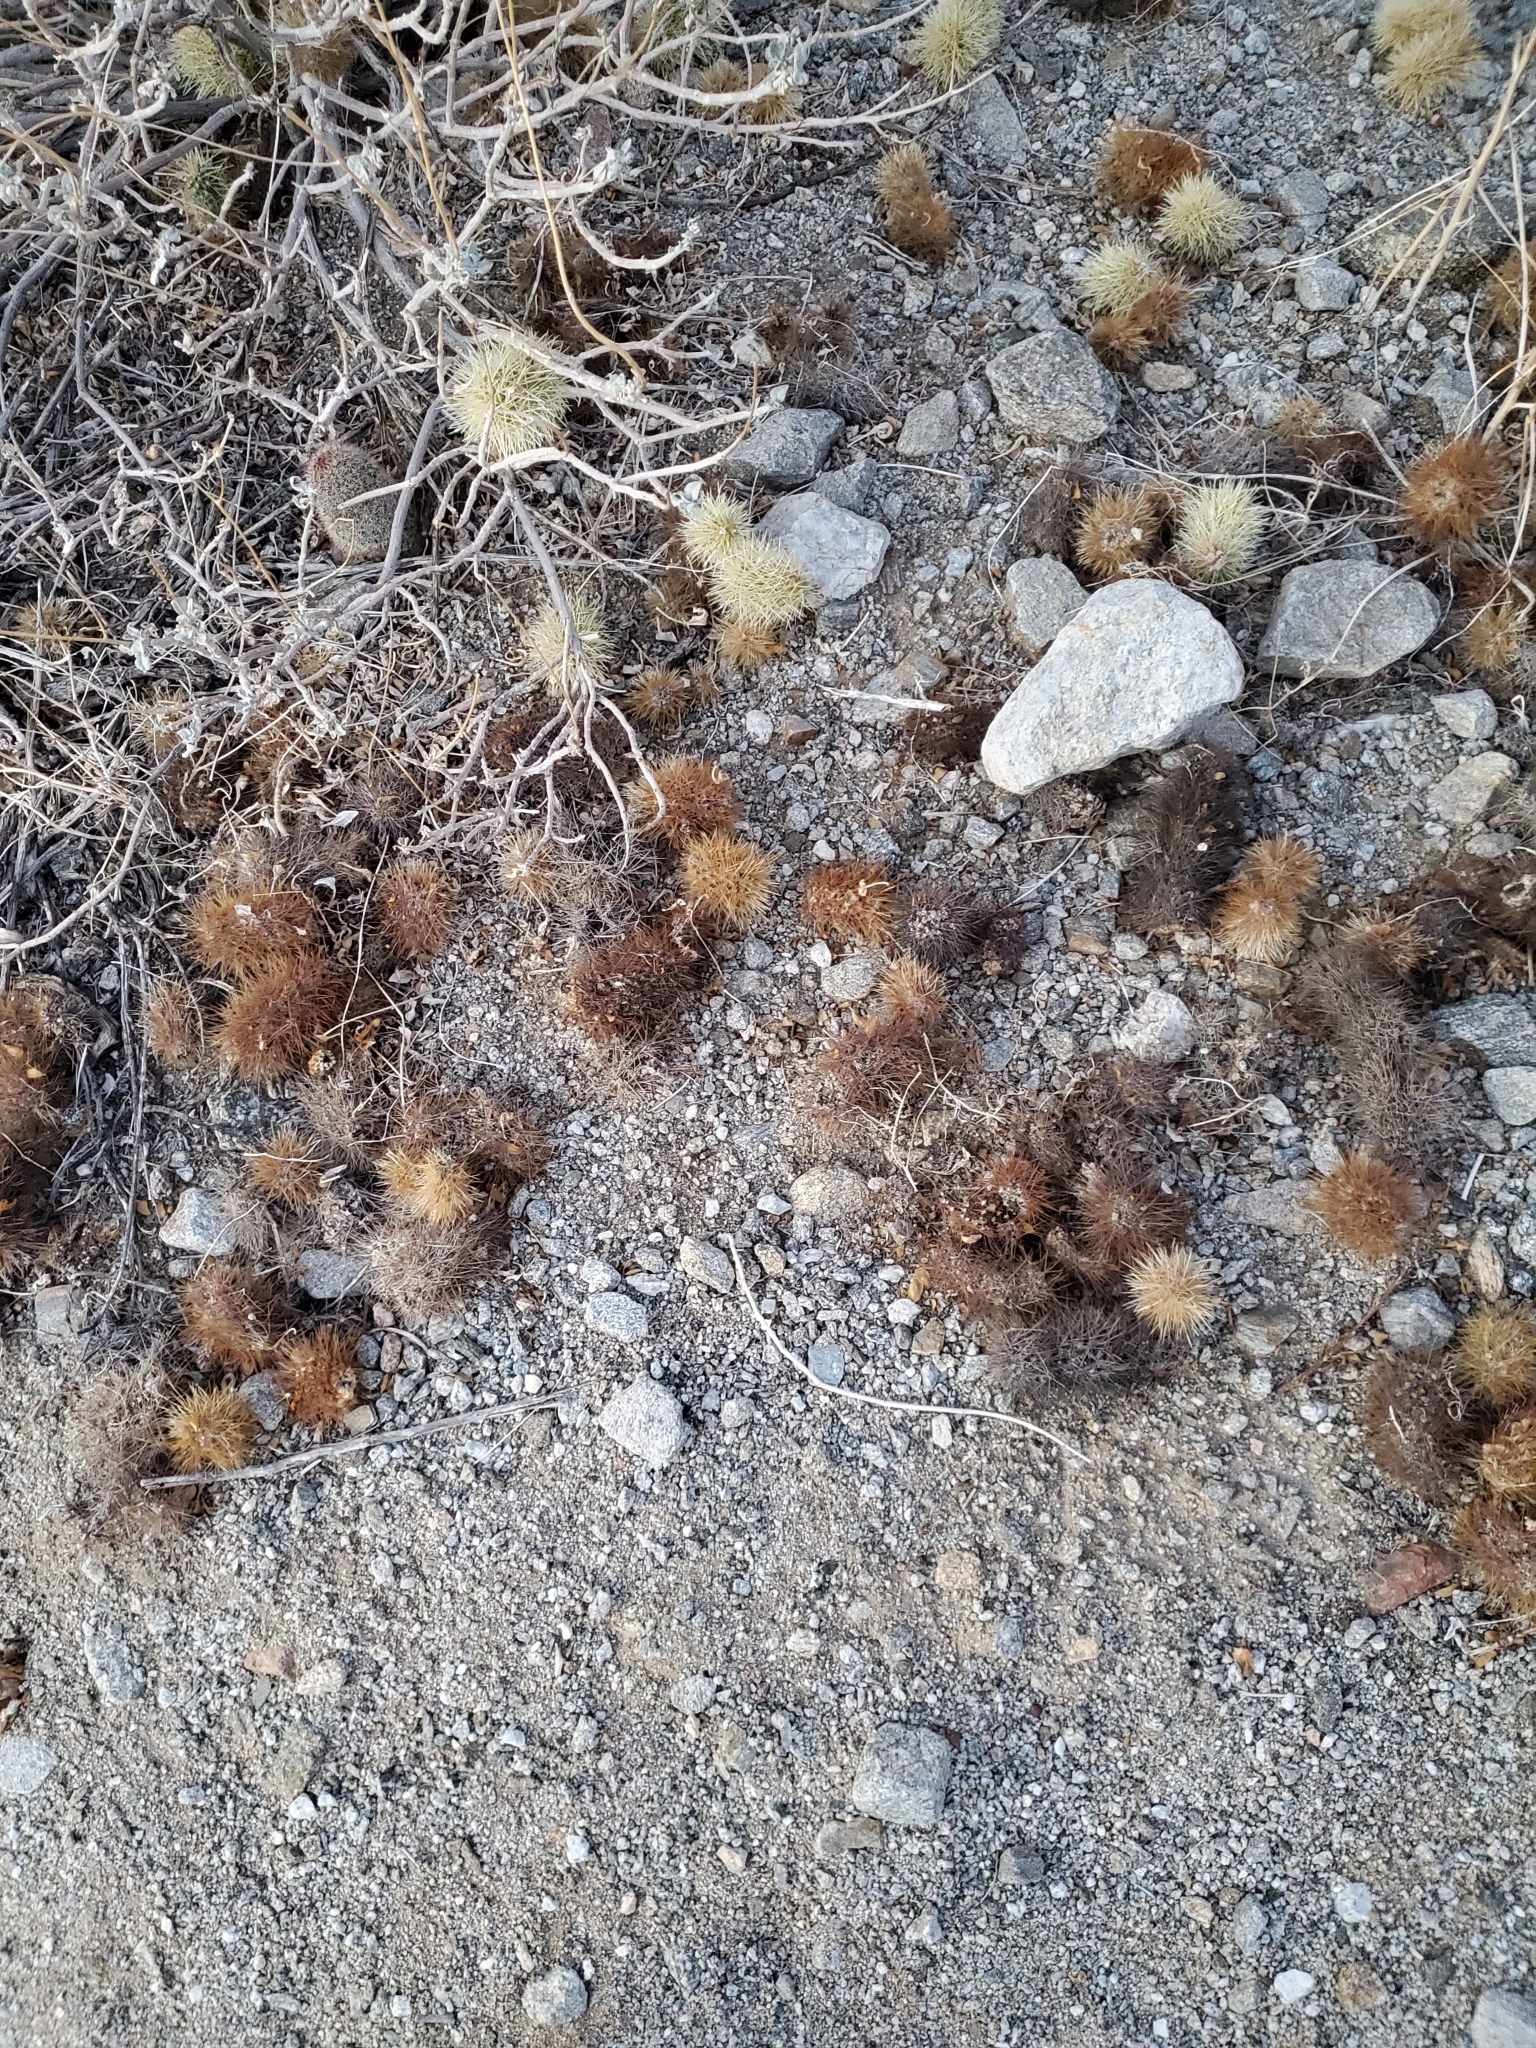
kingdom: Plantae
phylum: Tracheophyta
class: Magnoliopsida
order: Caryophyllales
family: Cactaceae
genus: Cylindropuntia
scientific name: Cylindropuntia fosbergii
